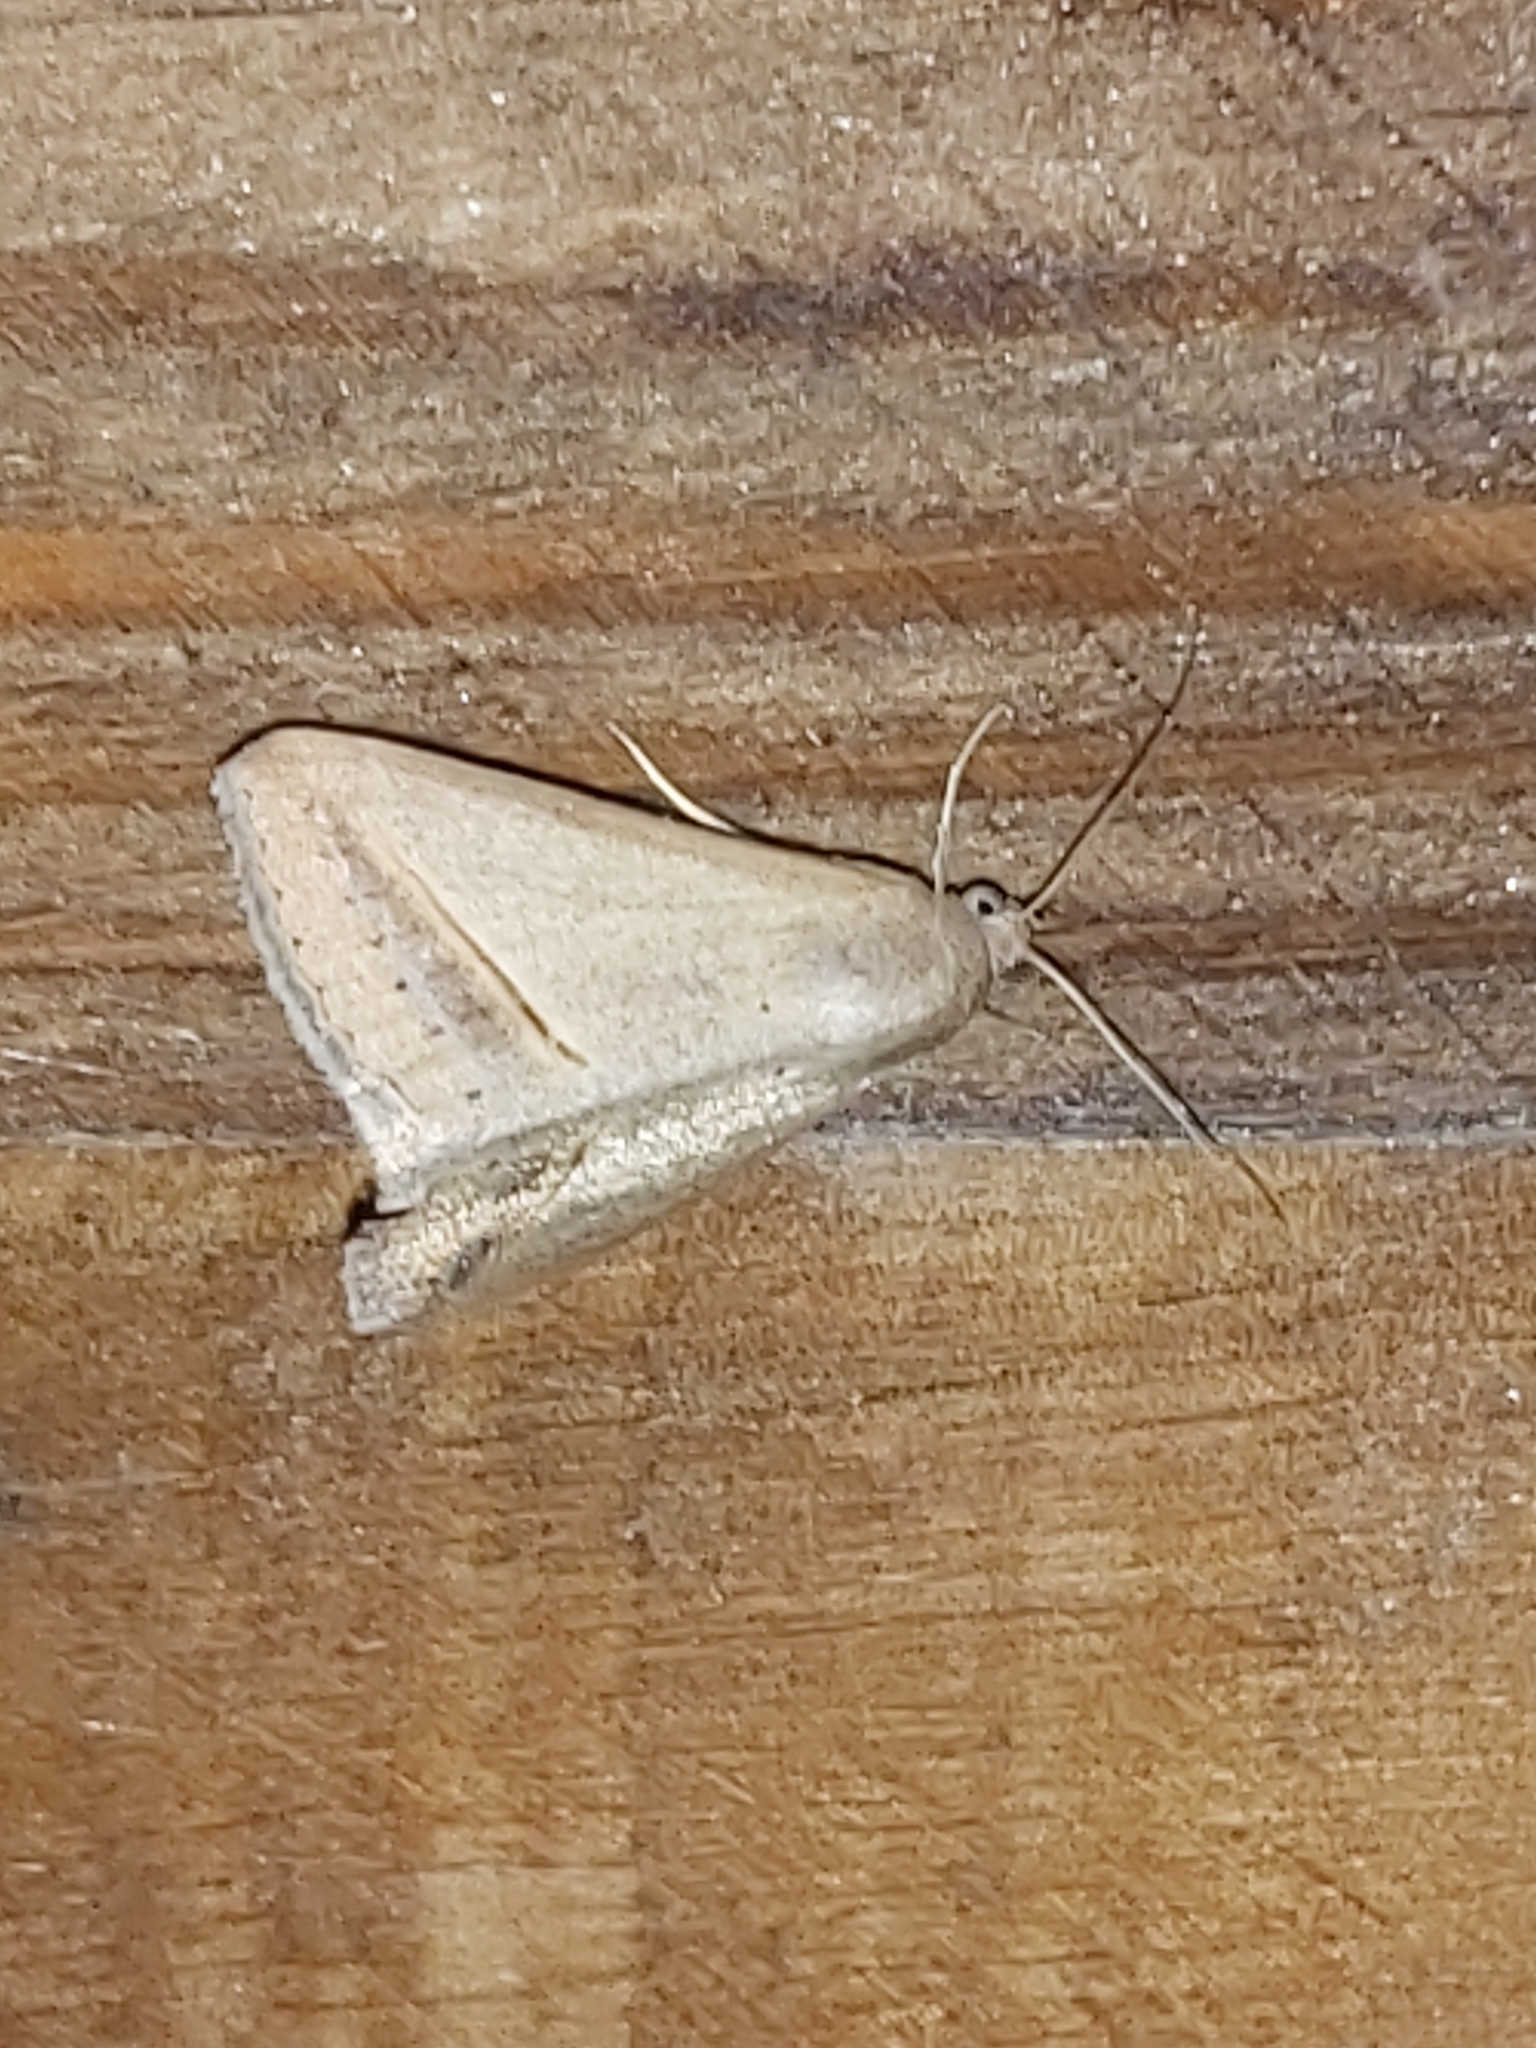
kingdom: Animalia
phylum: Arthropoda
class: Insecta
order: Lepidoptera
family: Erebidae
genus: Mocis
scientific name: Mocis frugalis
